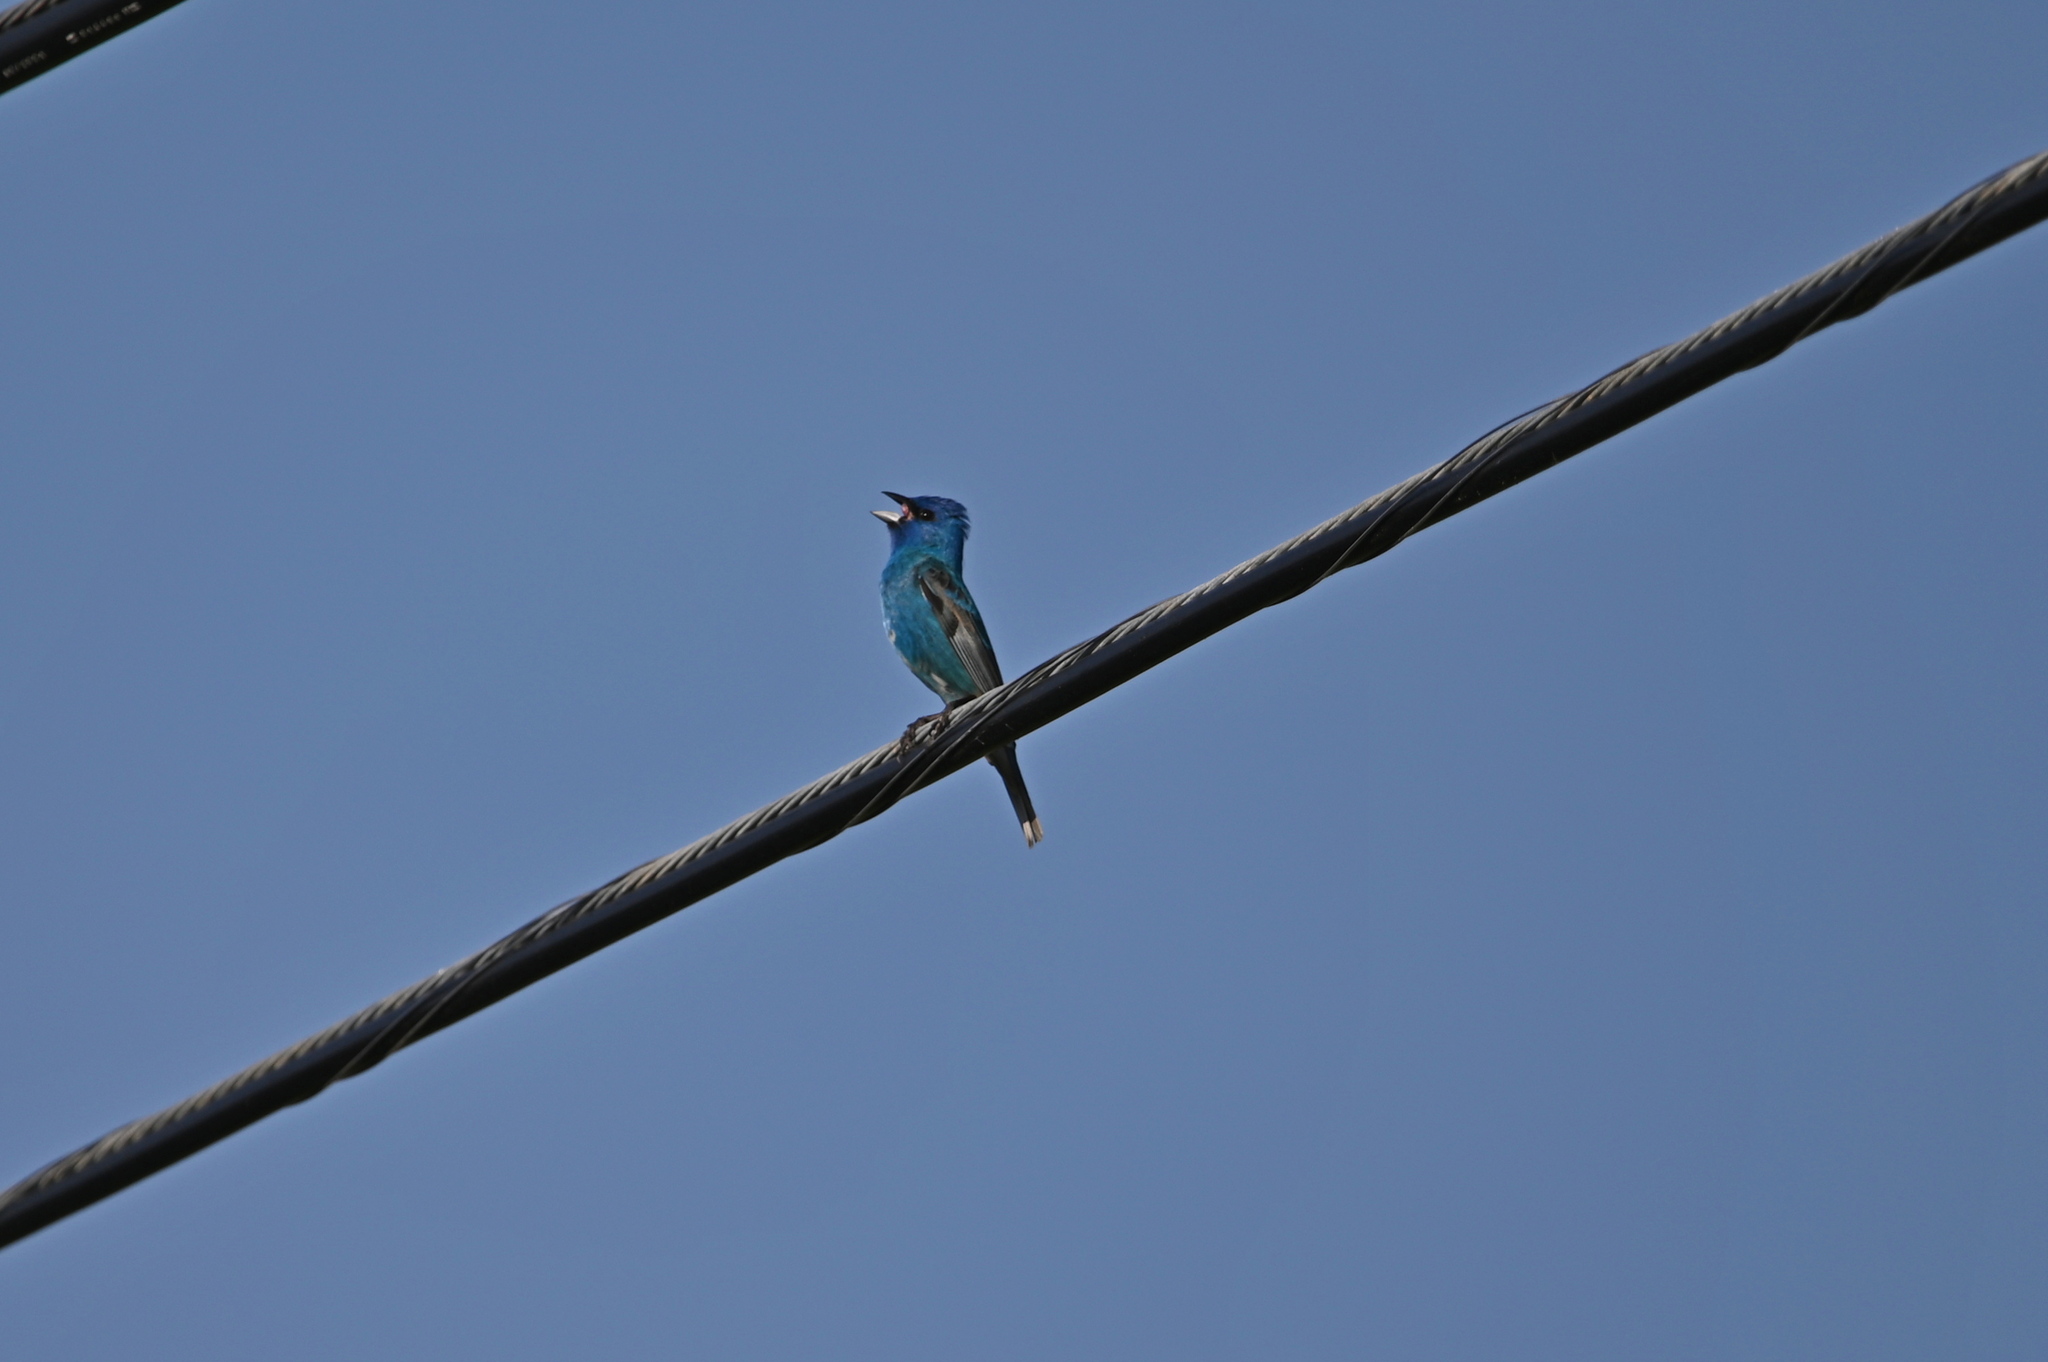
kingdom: Animalia
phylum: Chordata
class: Aves
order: Passeriformes
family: Cardinalidae
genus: Passerina
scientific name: Passerina cyanea
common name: Indigo bunting
